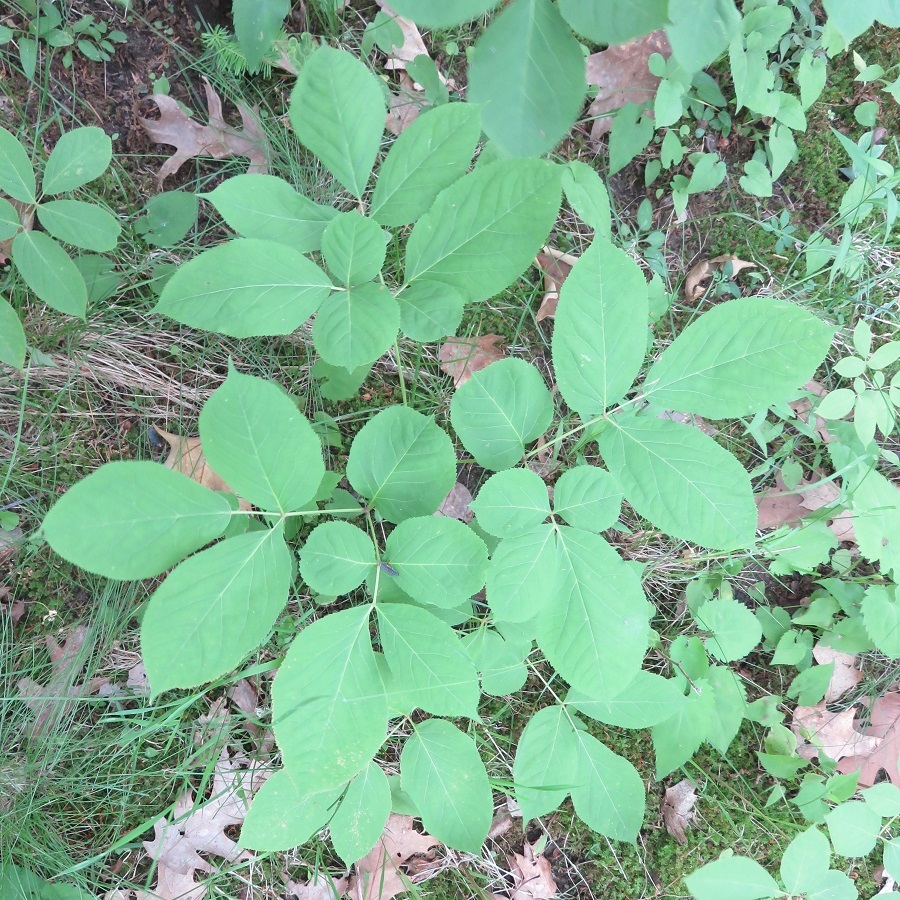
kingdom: Plantae
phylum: Tracheophyta
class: Magnoliopsida
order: Apiales
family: Araliaceae
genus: Aralia
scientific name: Aralia nudicaulis
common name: Wild sarsaparilla
